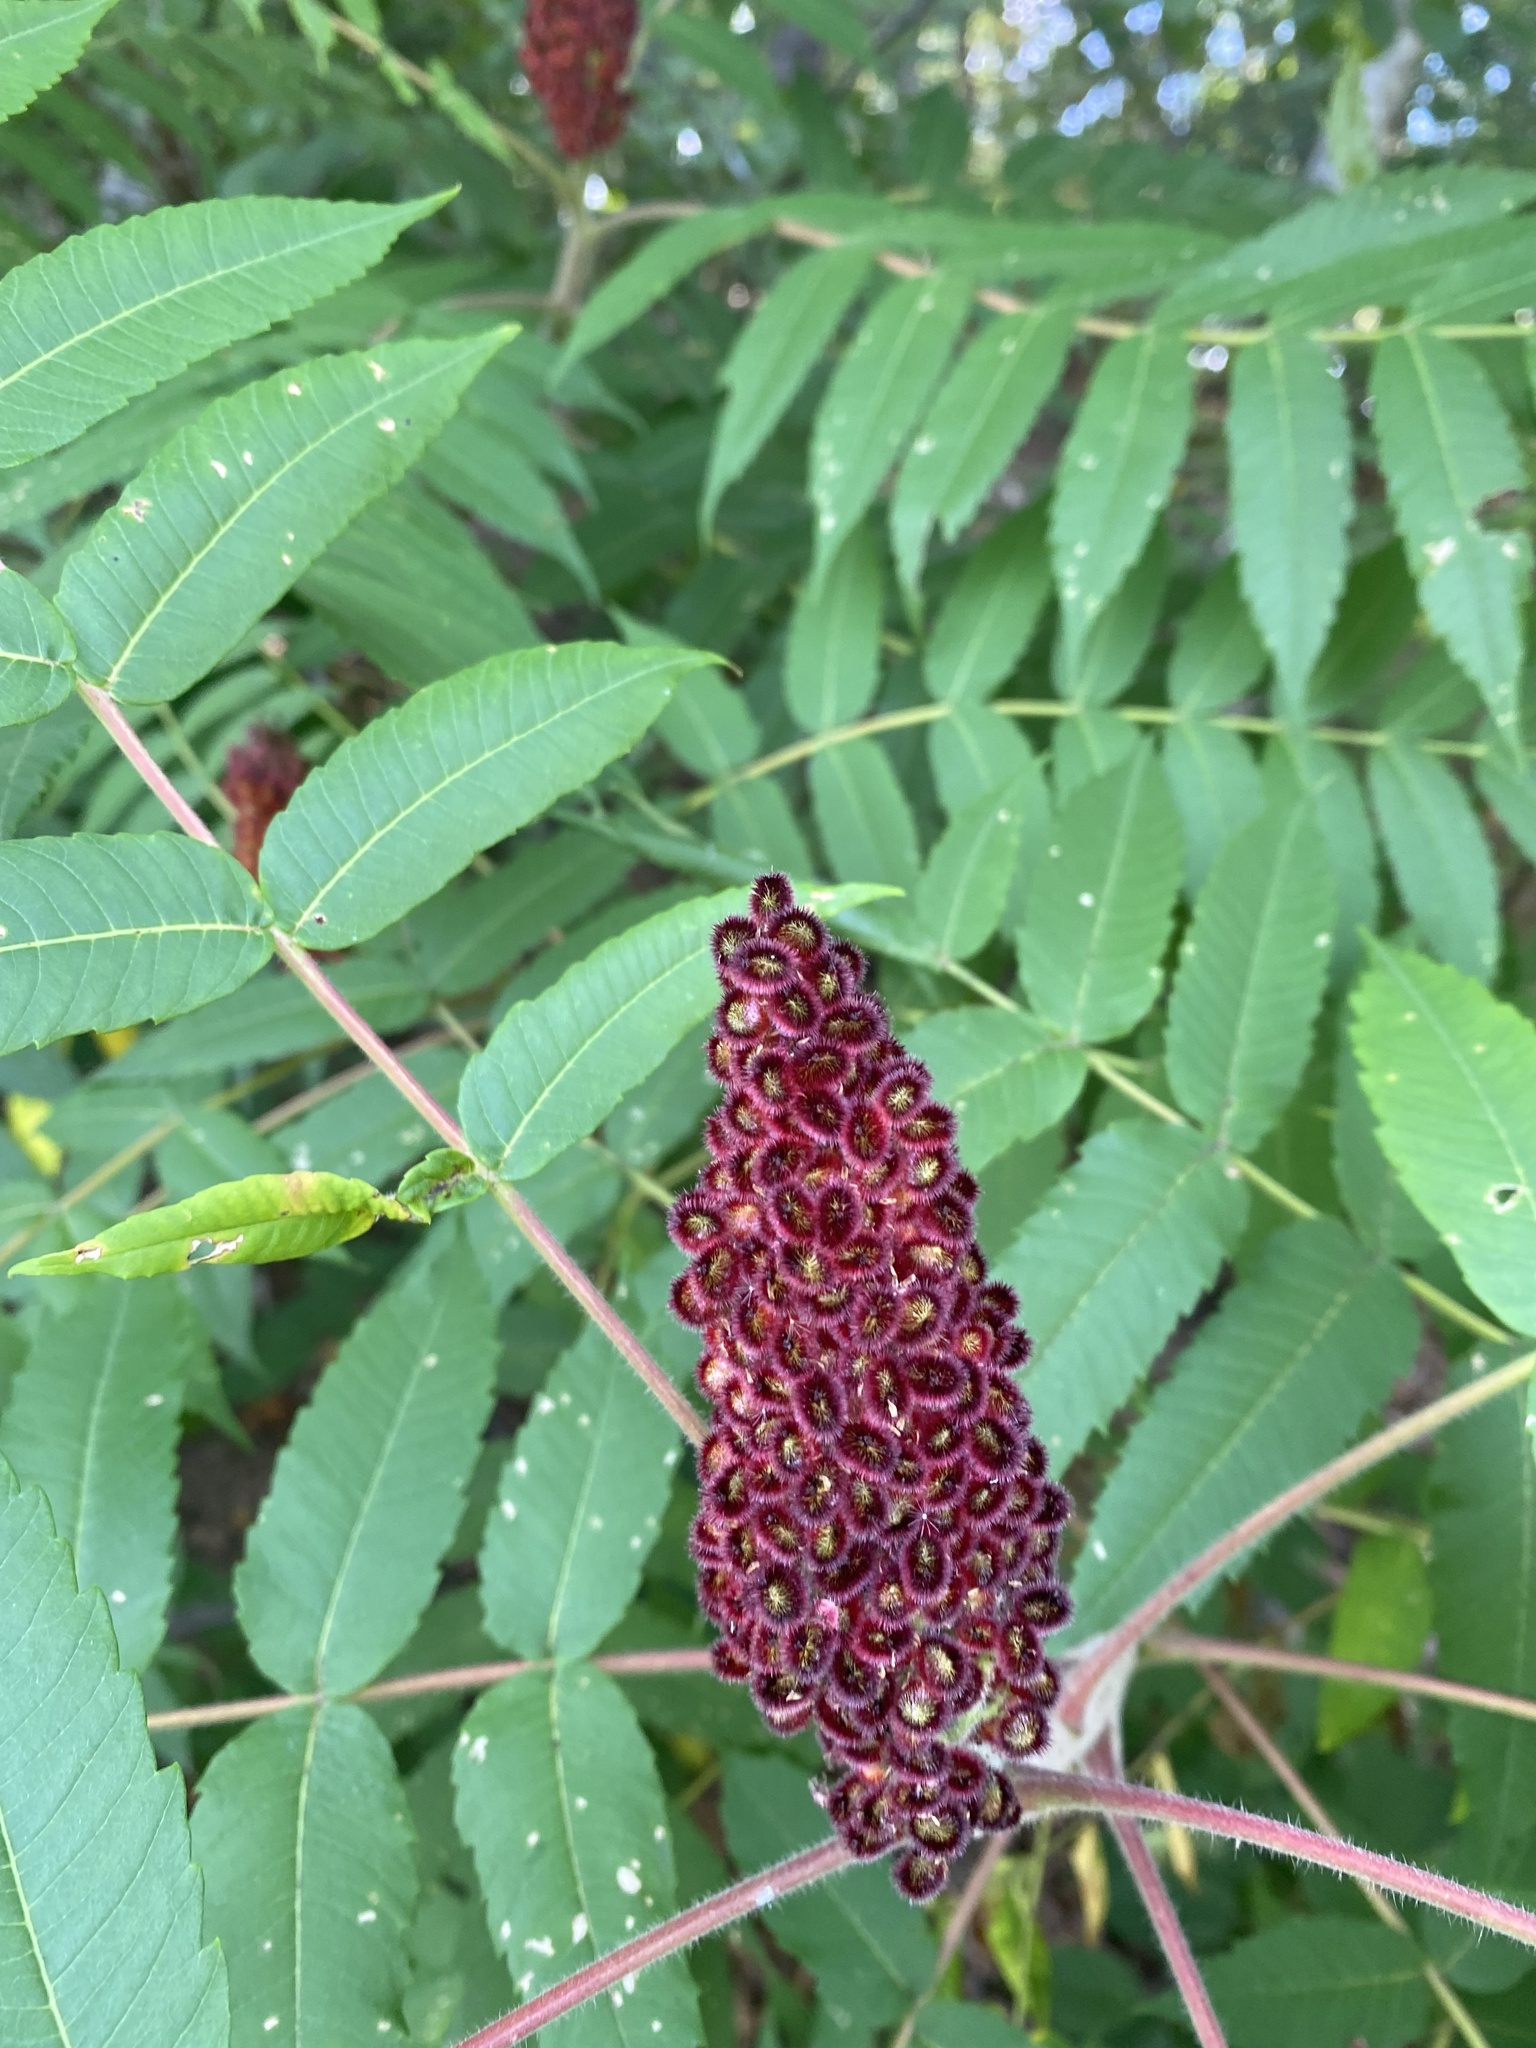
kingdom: Plantae
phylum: Tracheophyta
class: Magnoliopsida
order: Sapindales
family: Anacardiaceae
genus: Rhus
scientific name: Rhus glabra
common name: Scarlet sumac
